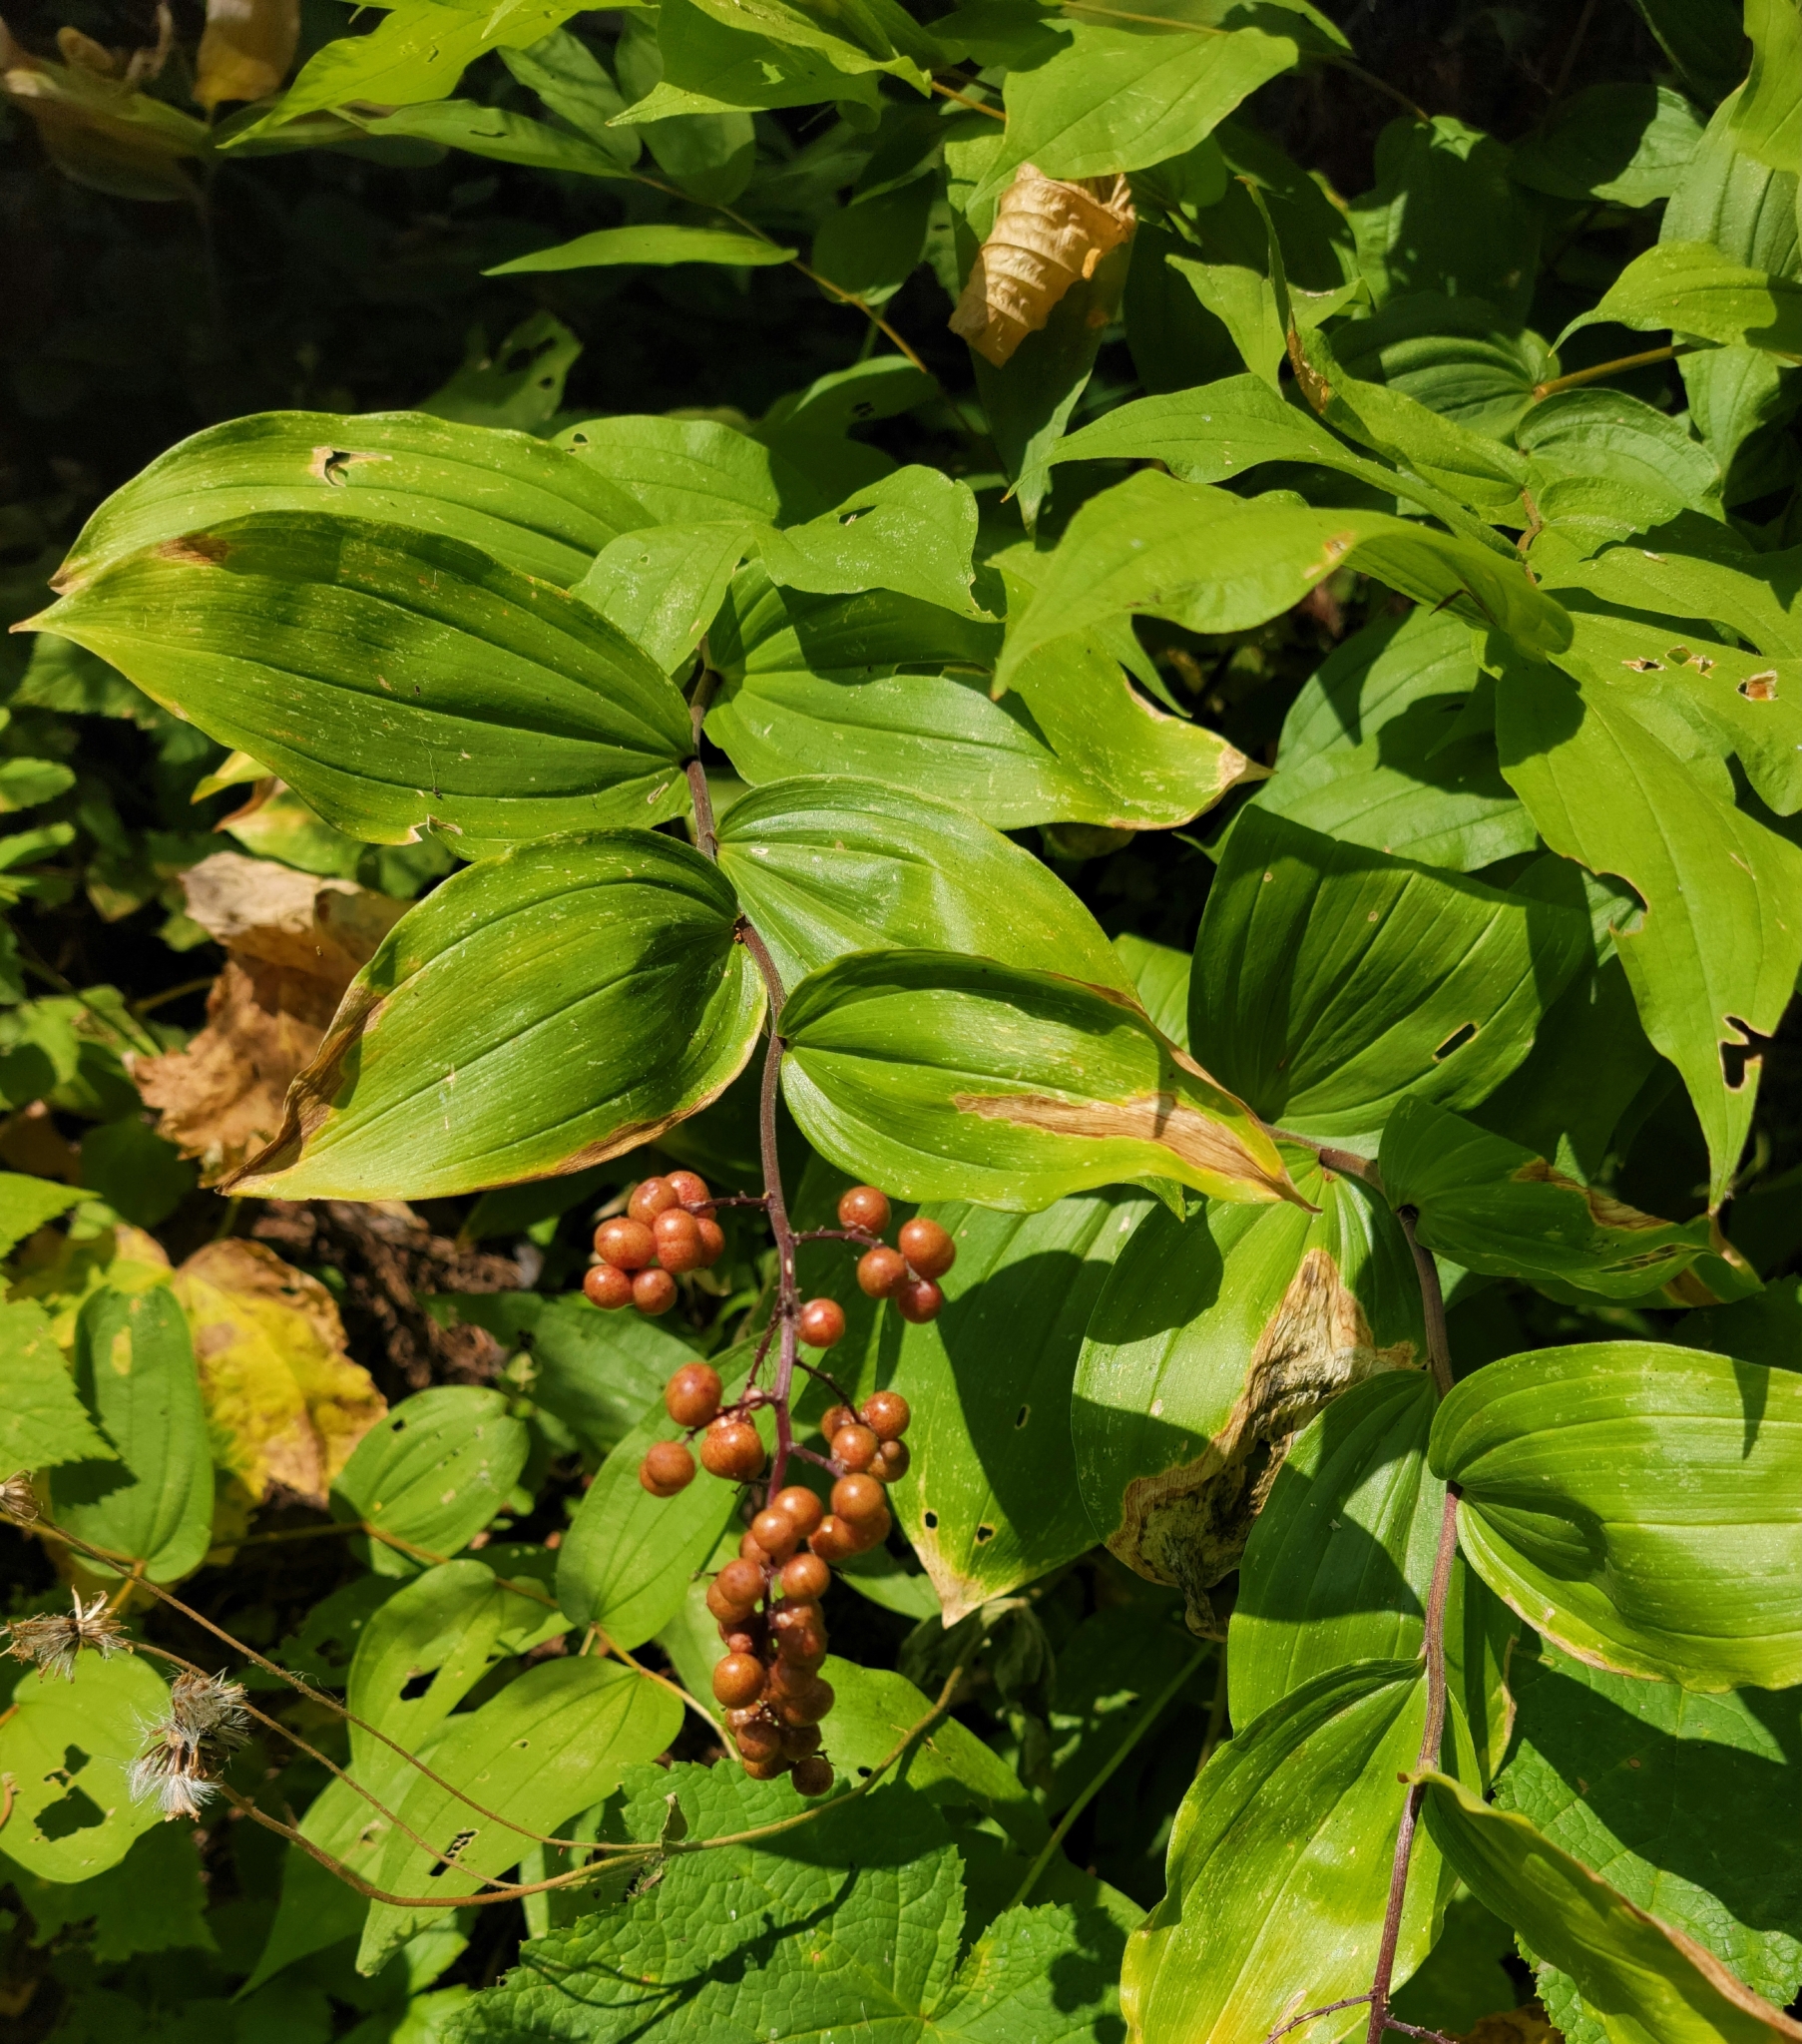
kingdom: Plantae
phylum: Tracheophyta
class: Liliopsida
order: Asparagales
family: Asparagaceae
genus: Maianthemum
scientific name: Maianthemum racemosum
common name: False spikenard
